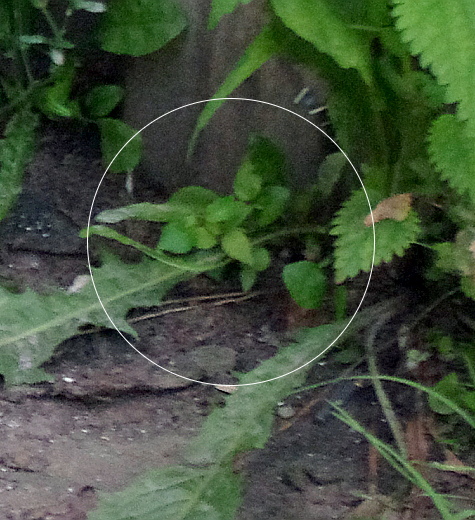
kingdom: Plantae
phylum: Tracheophyta
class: Magnoliopsida
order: Caryophyllales
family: Caryophyllaceae
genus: Stellaria
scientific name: Stellaria media
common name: Common chickweed
